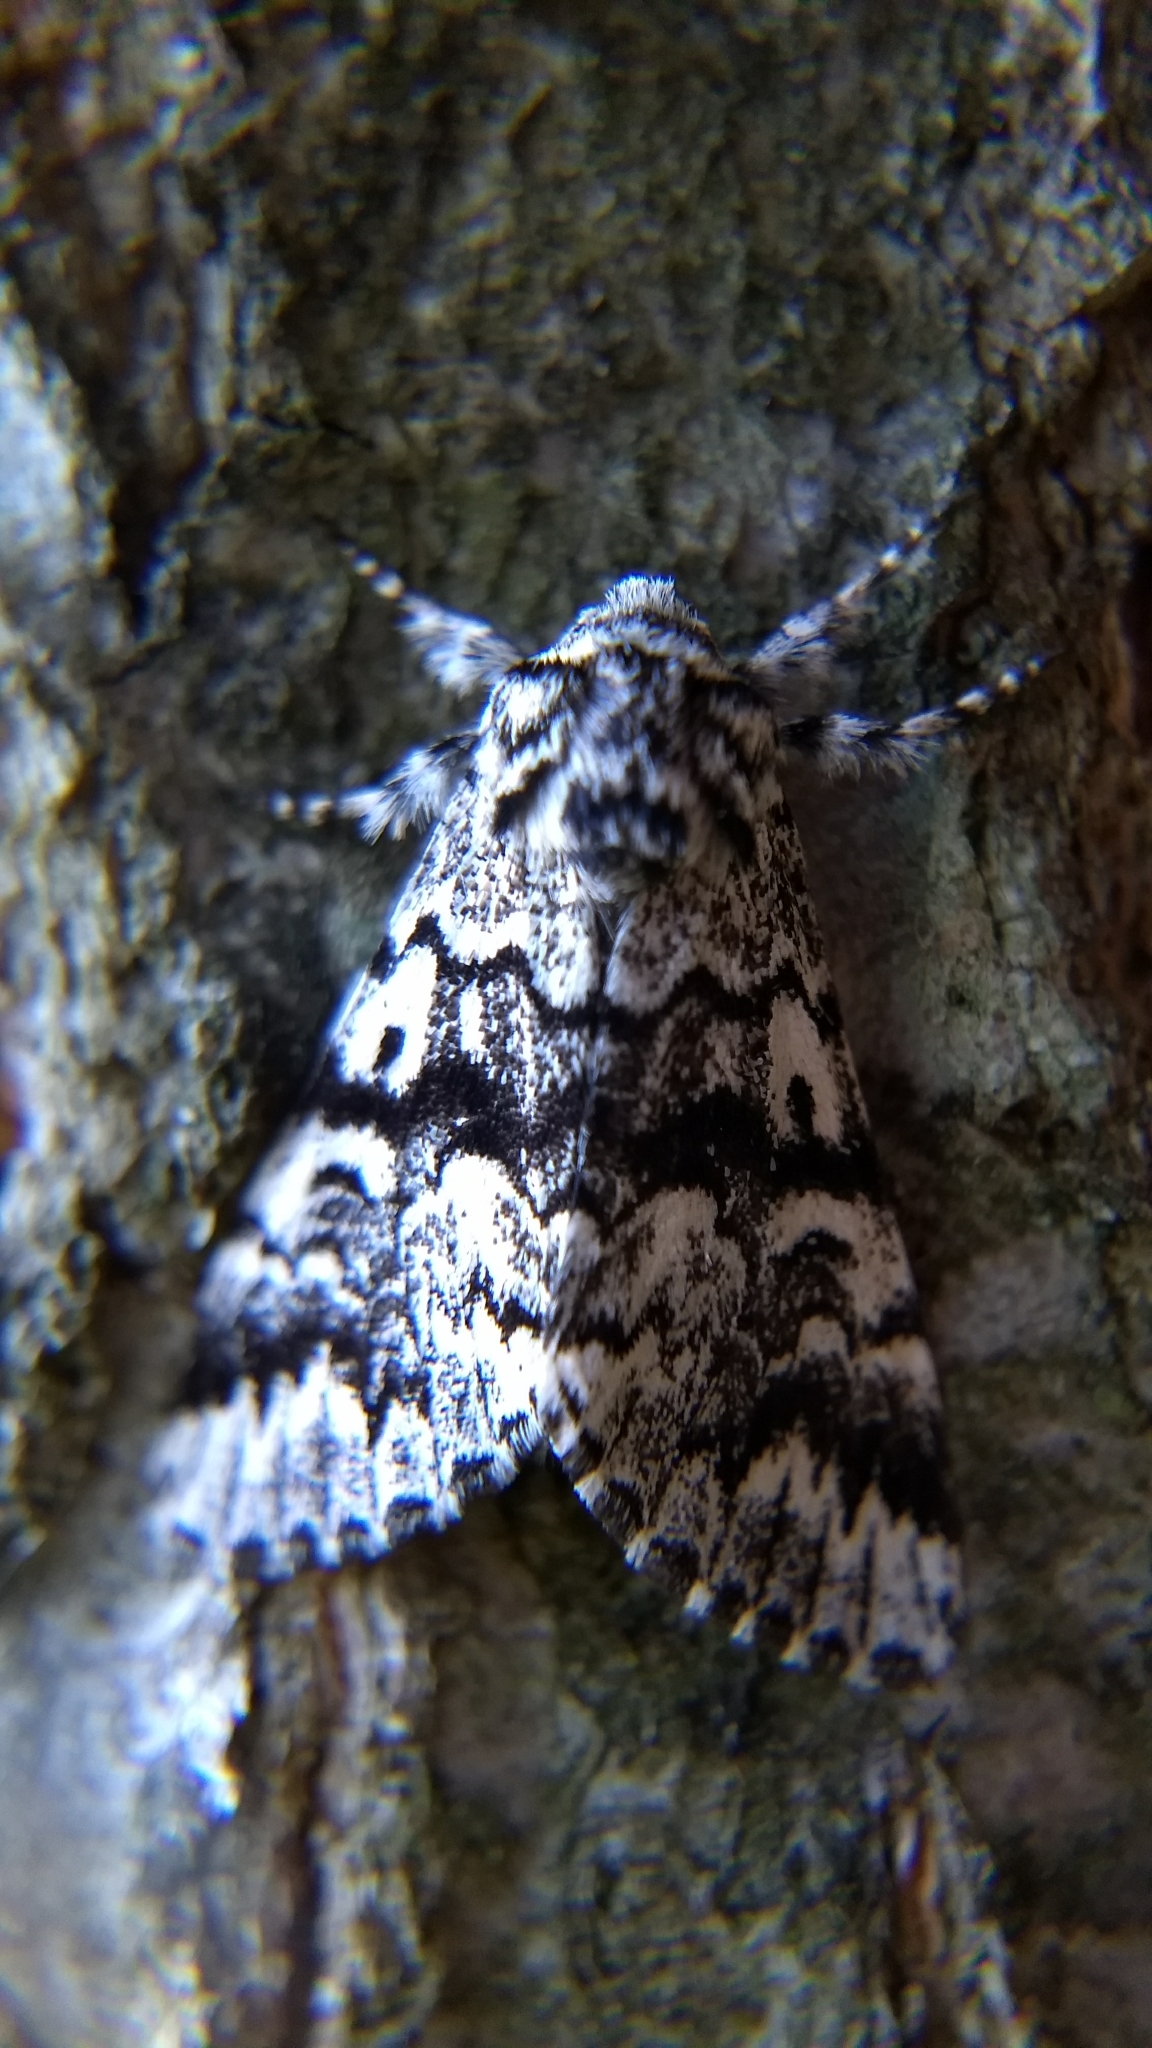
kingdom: Animalia
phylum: Arthropoda
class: Insecta
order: Lepidoptera
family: Noctuidae
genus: Panthea
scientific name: Panthea acronyctoides
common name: Black zigzag moth
